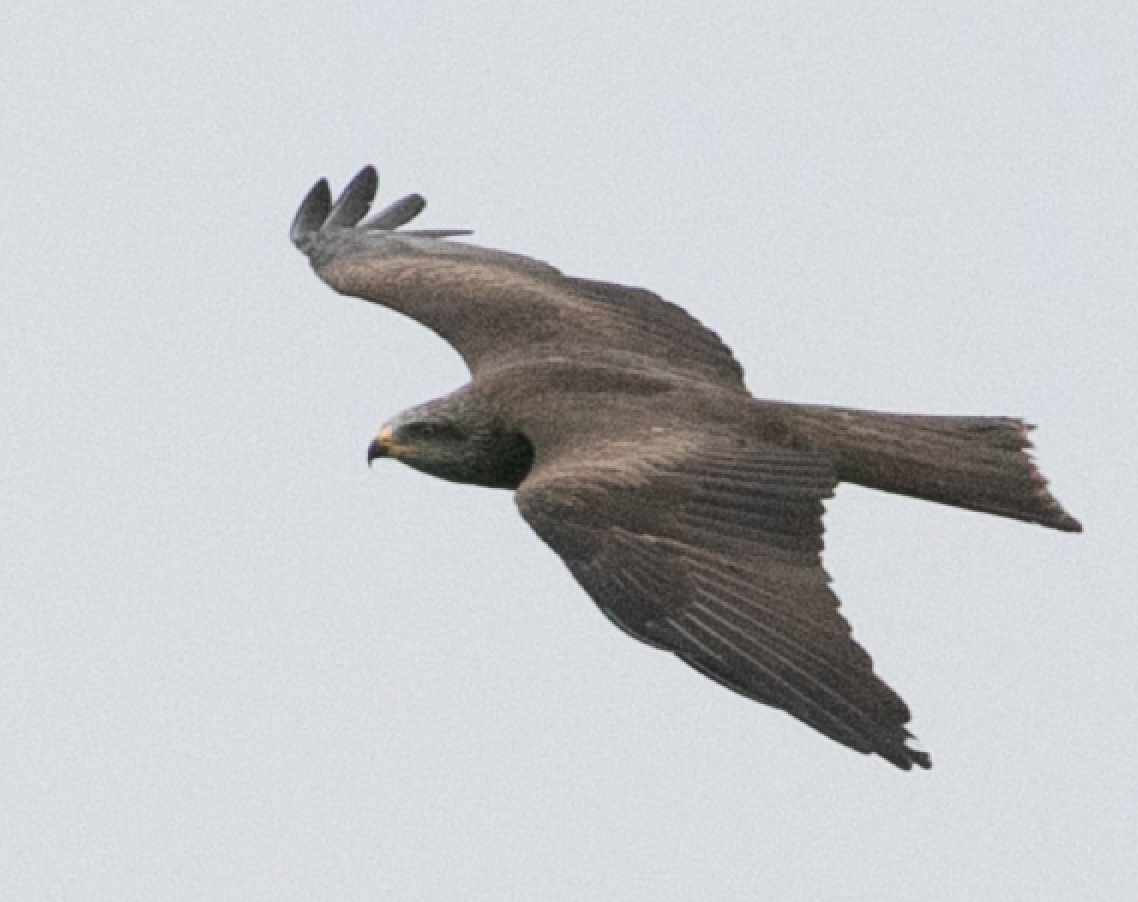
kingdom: Animalia
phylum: Chordata
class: Aves
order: Accipitriformes
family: Accipitridae
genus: Milvus
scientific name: Milvus migrans
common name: Black kite
